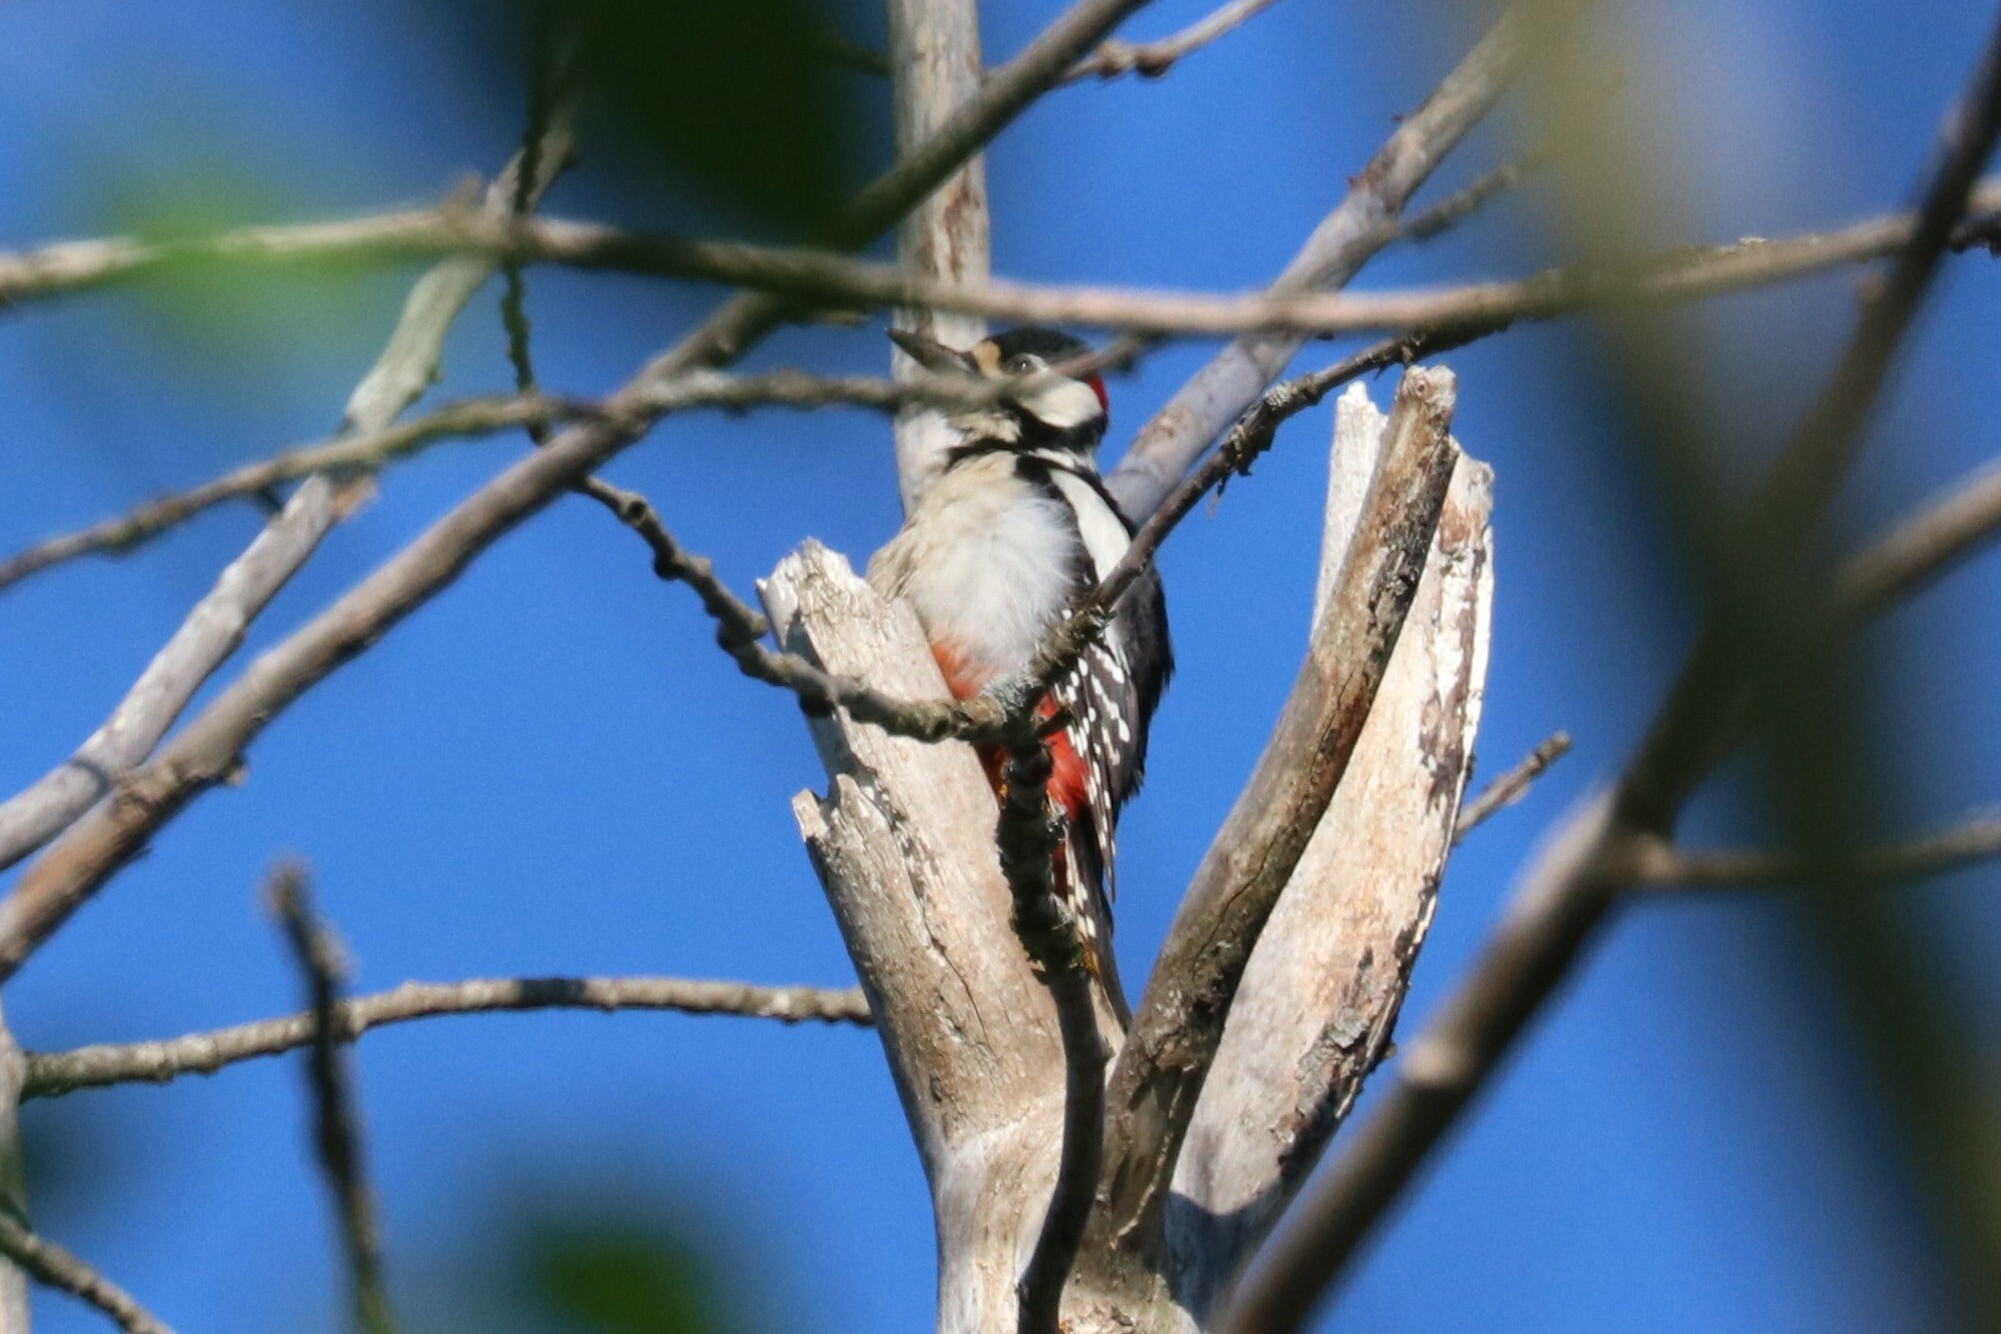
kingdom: Animalia
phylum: Chordata
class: Aves
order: Piciformes
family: Picidae
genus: Dendrocopos
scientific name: Dendrocopos major
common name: Great spotted woodpecker
